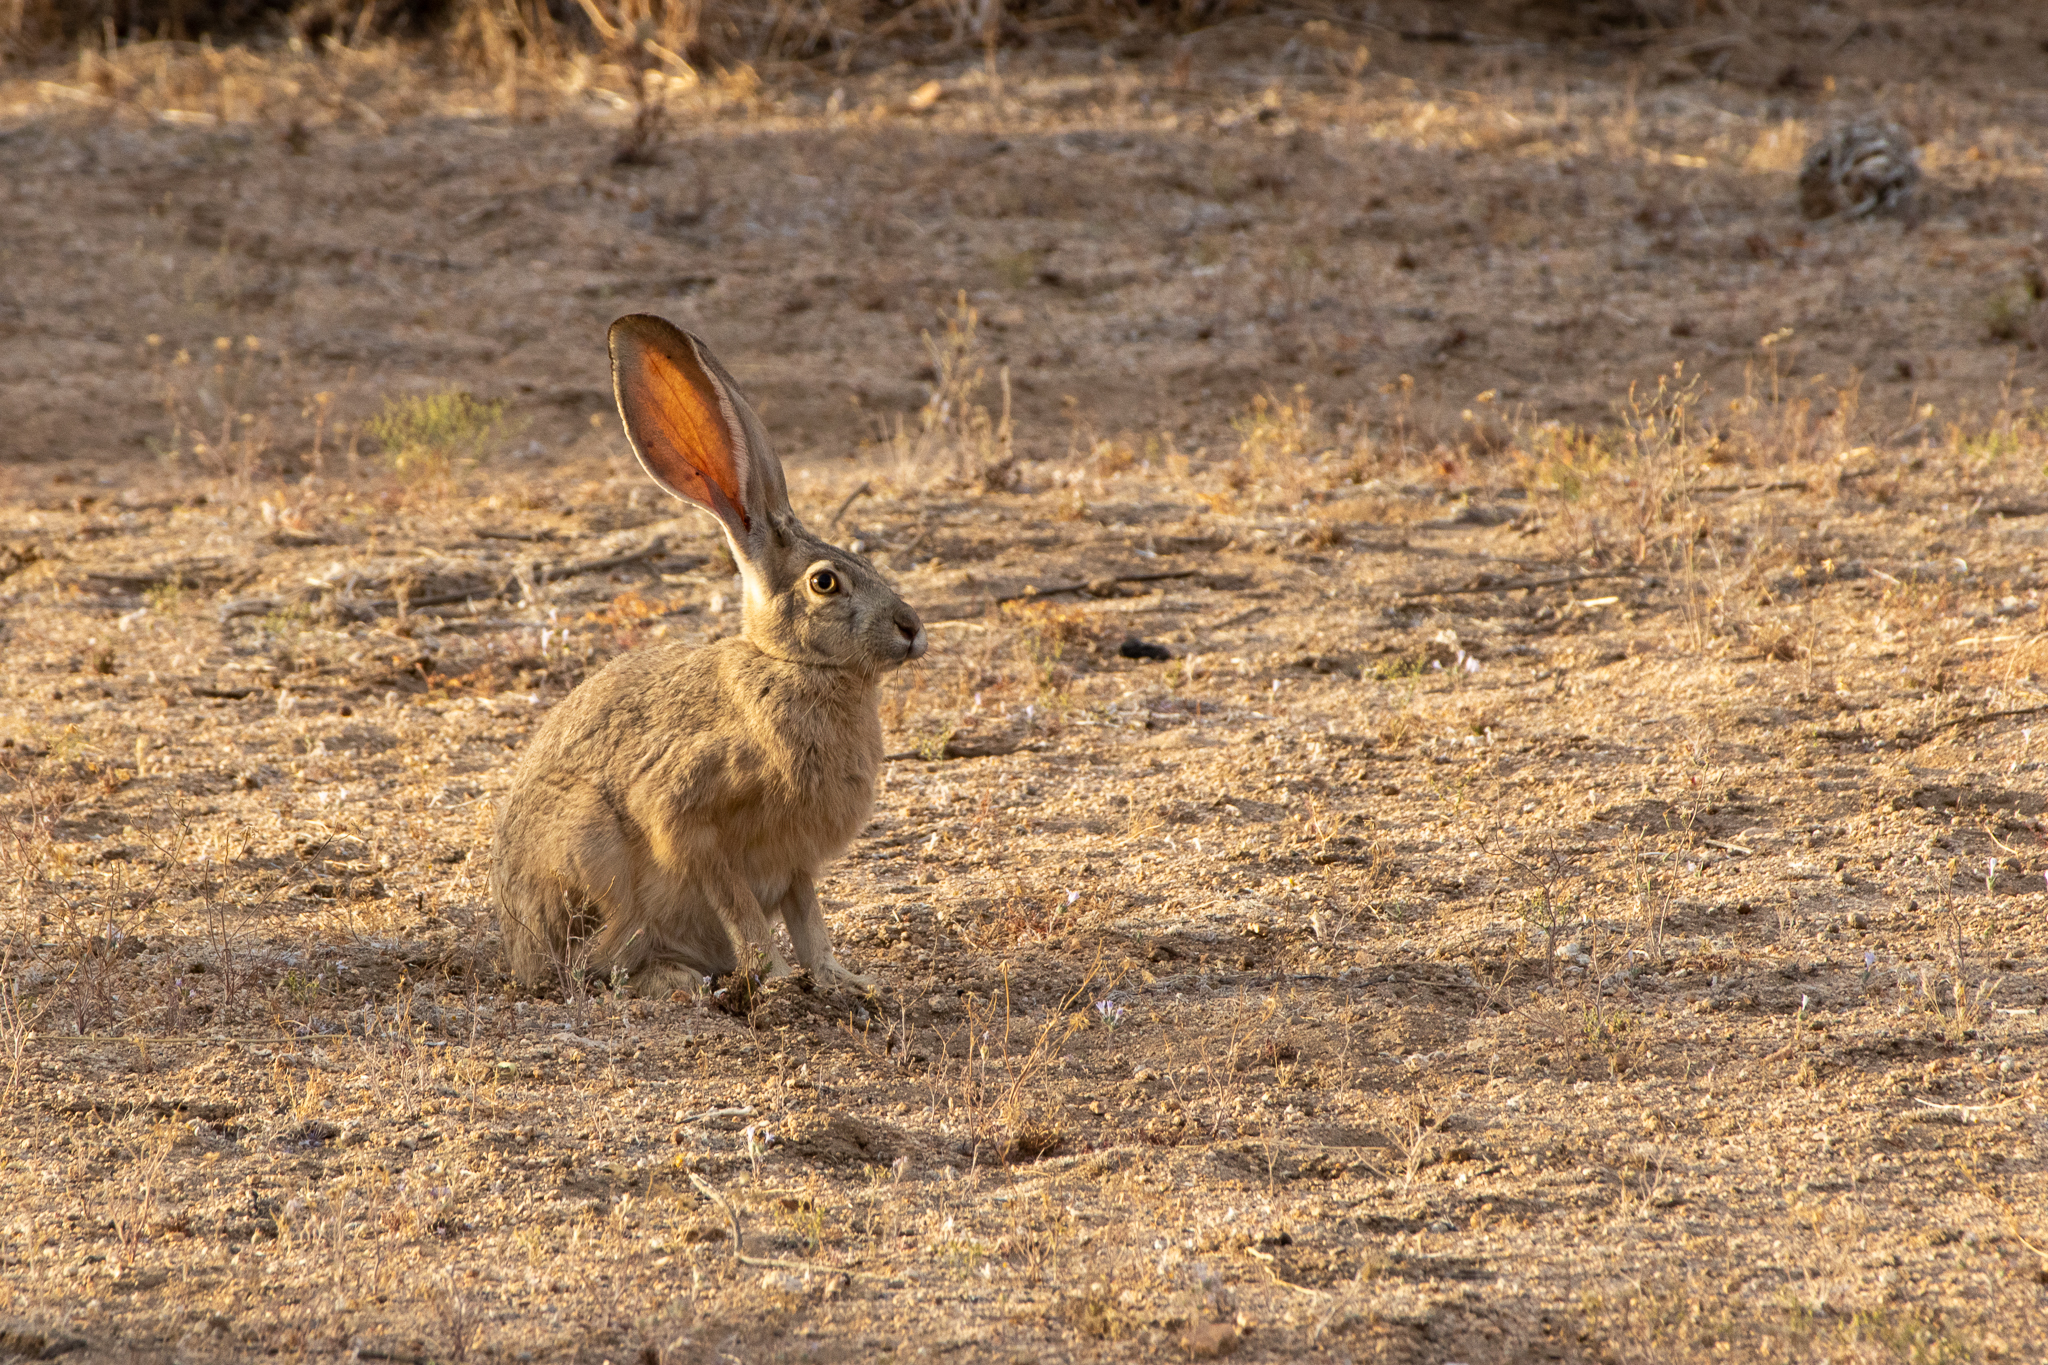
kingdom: Animalia
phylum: Chordata
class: Mammalia
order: Lagomorpha
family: Leporidae
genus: Lepus
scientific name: Lepus californicus
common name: Black-tailed jackrabbit
